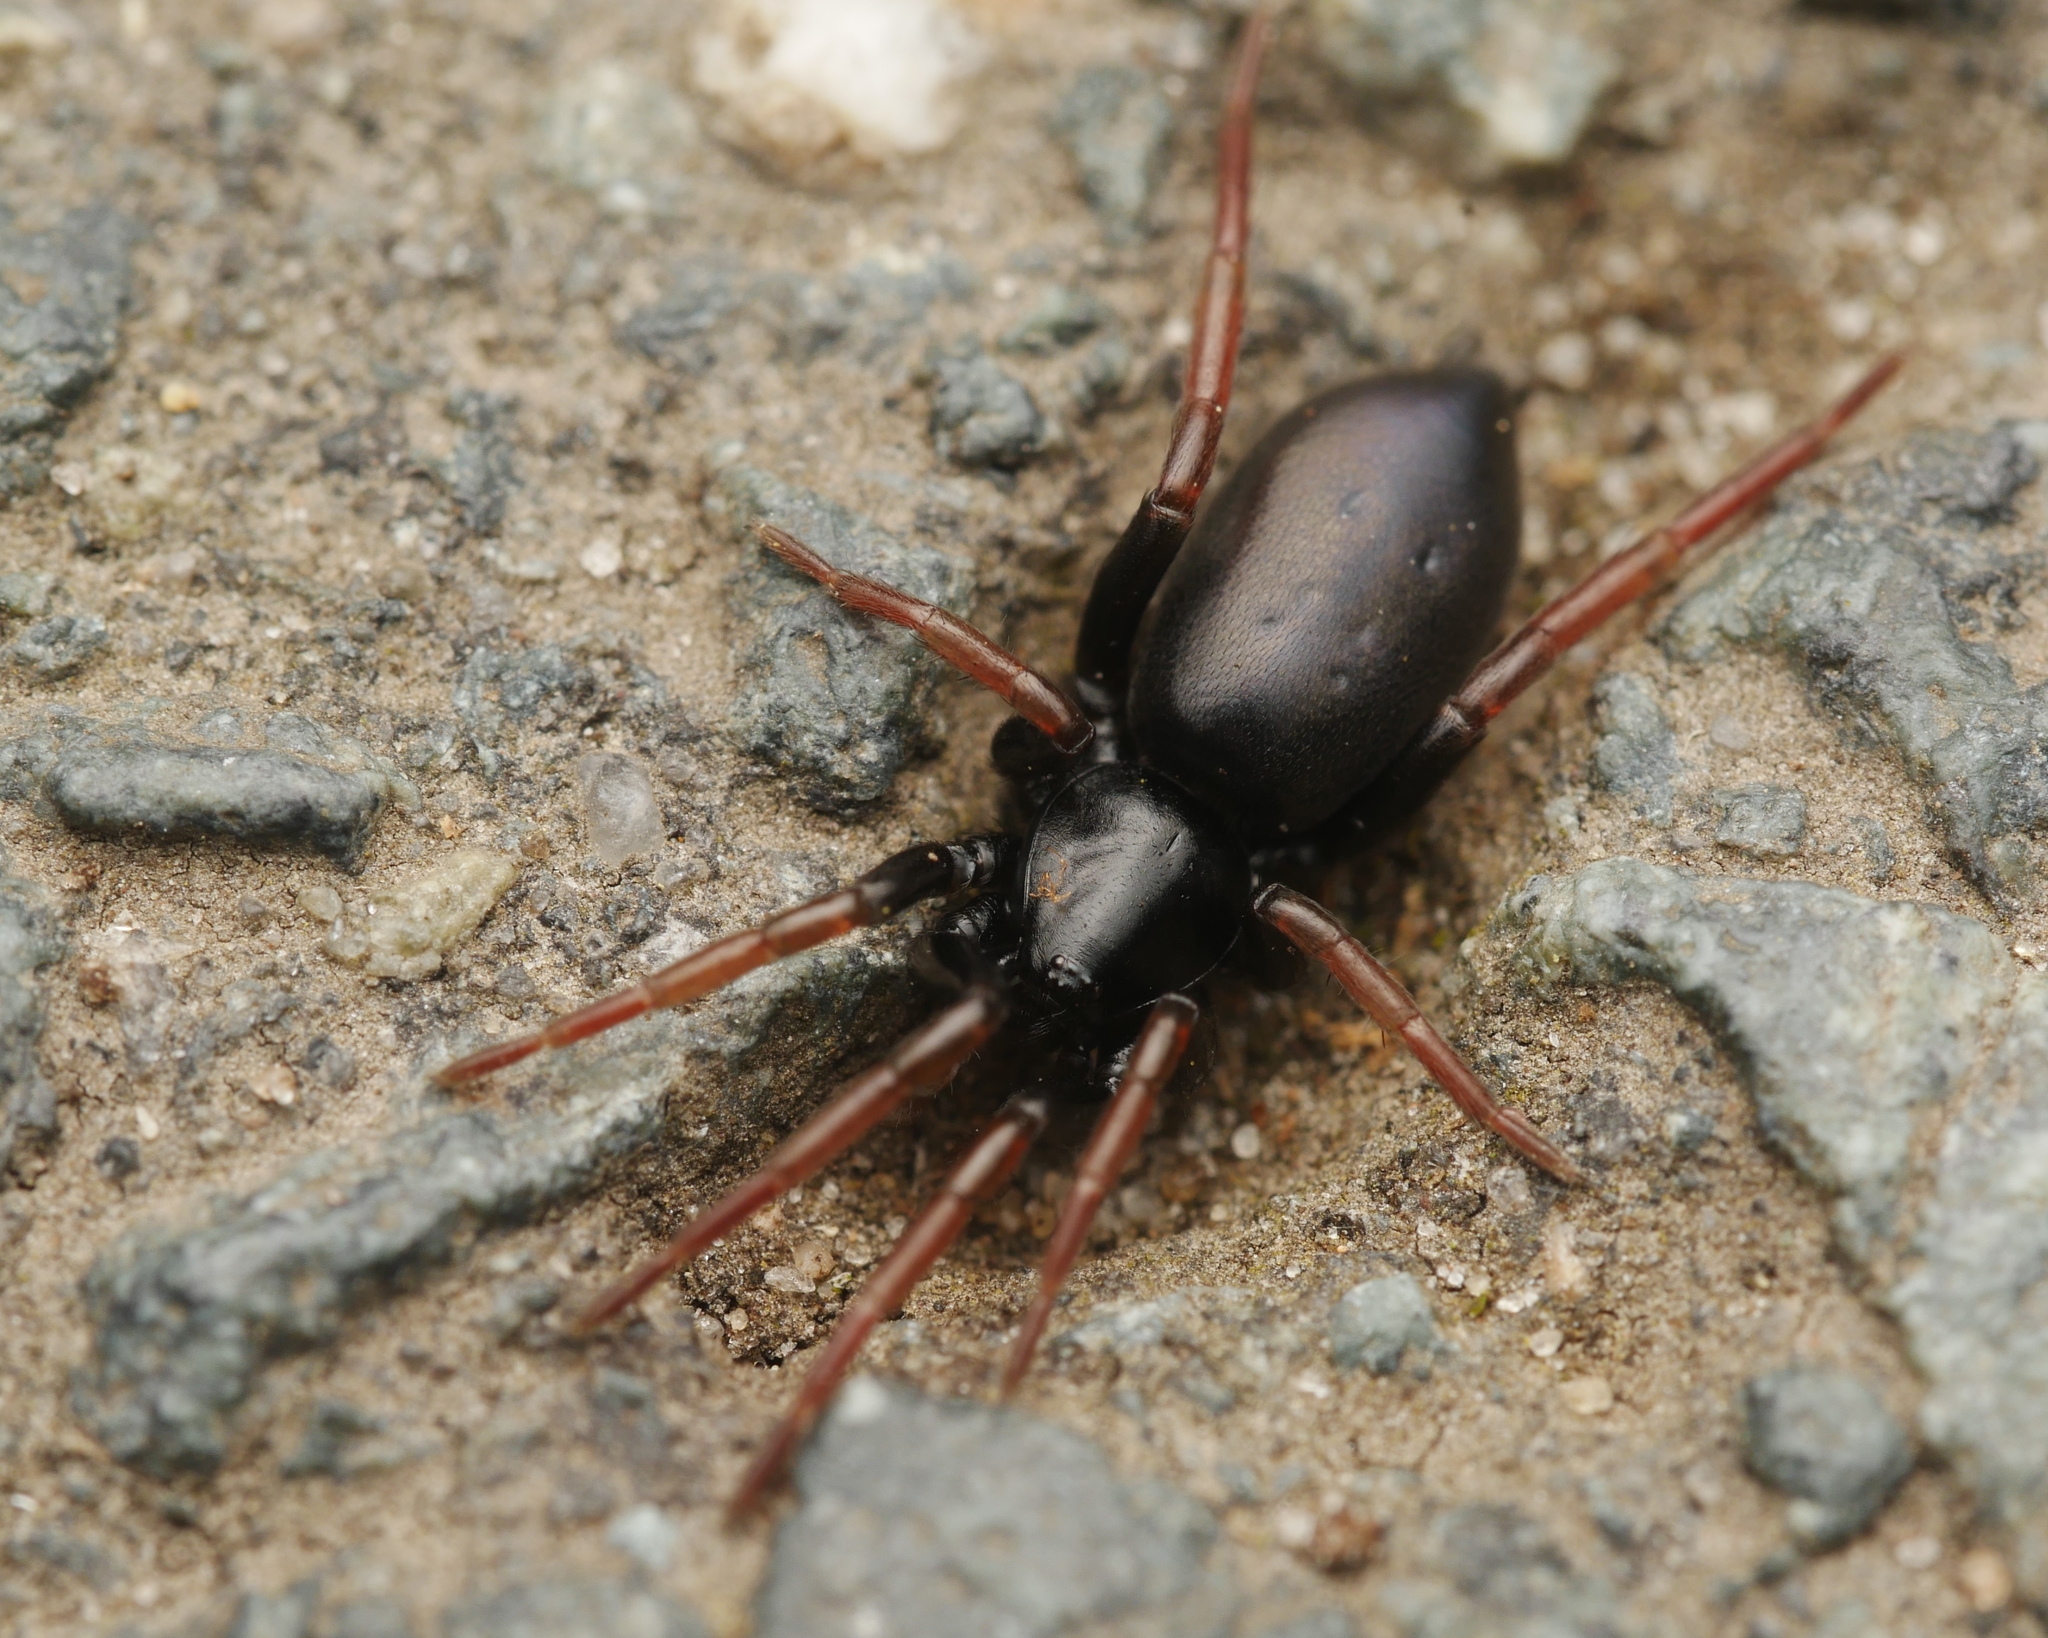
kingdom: Animalia
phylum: Arthropoda
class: Arachnida
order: Araneae
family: Gnaphosidae
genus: Trachyzelotes
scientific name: Trachyzelotes pedestris
